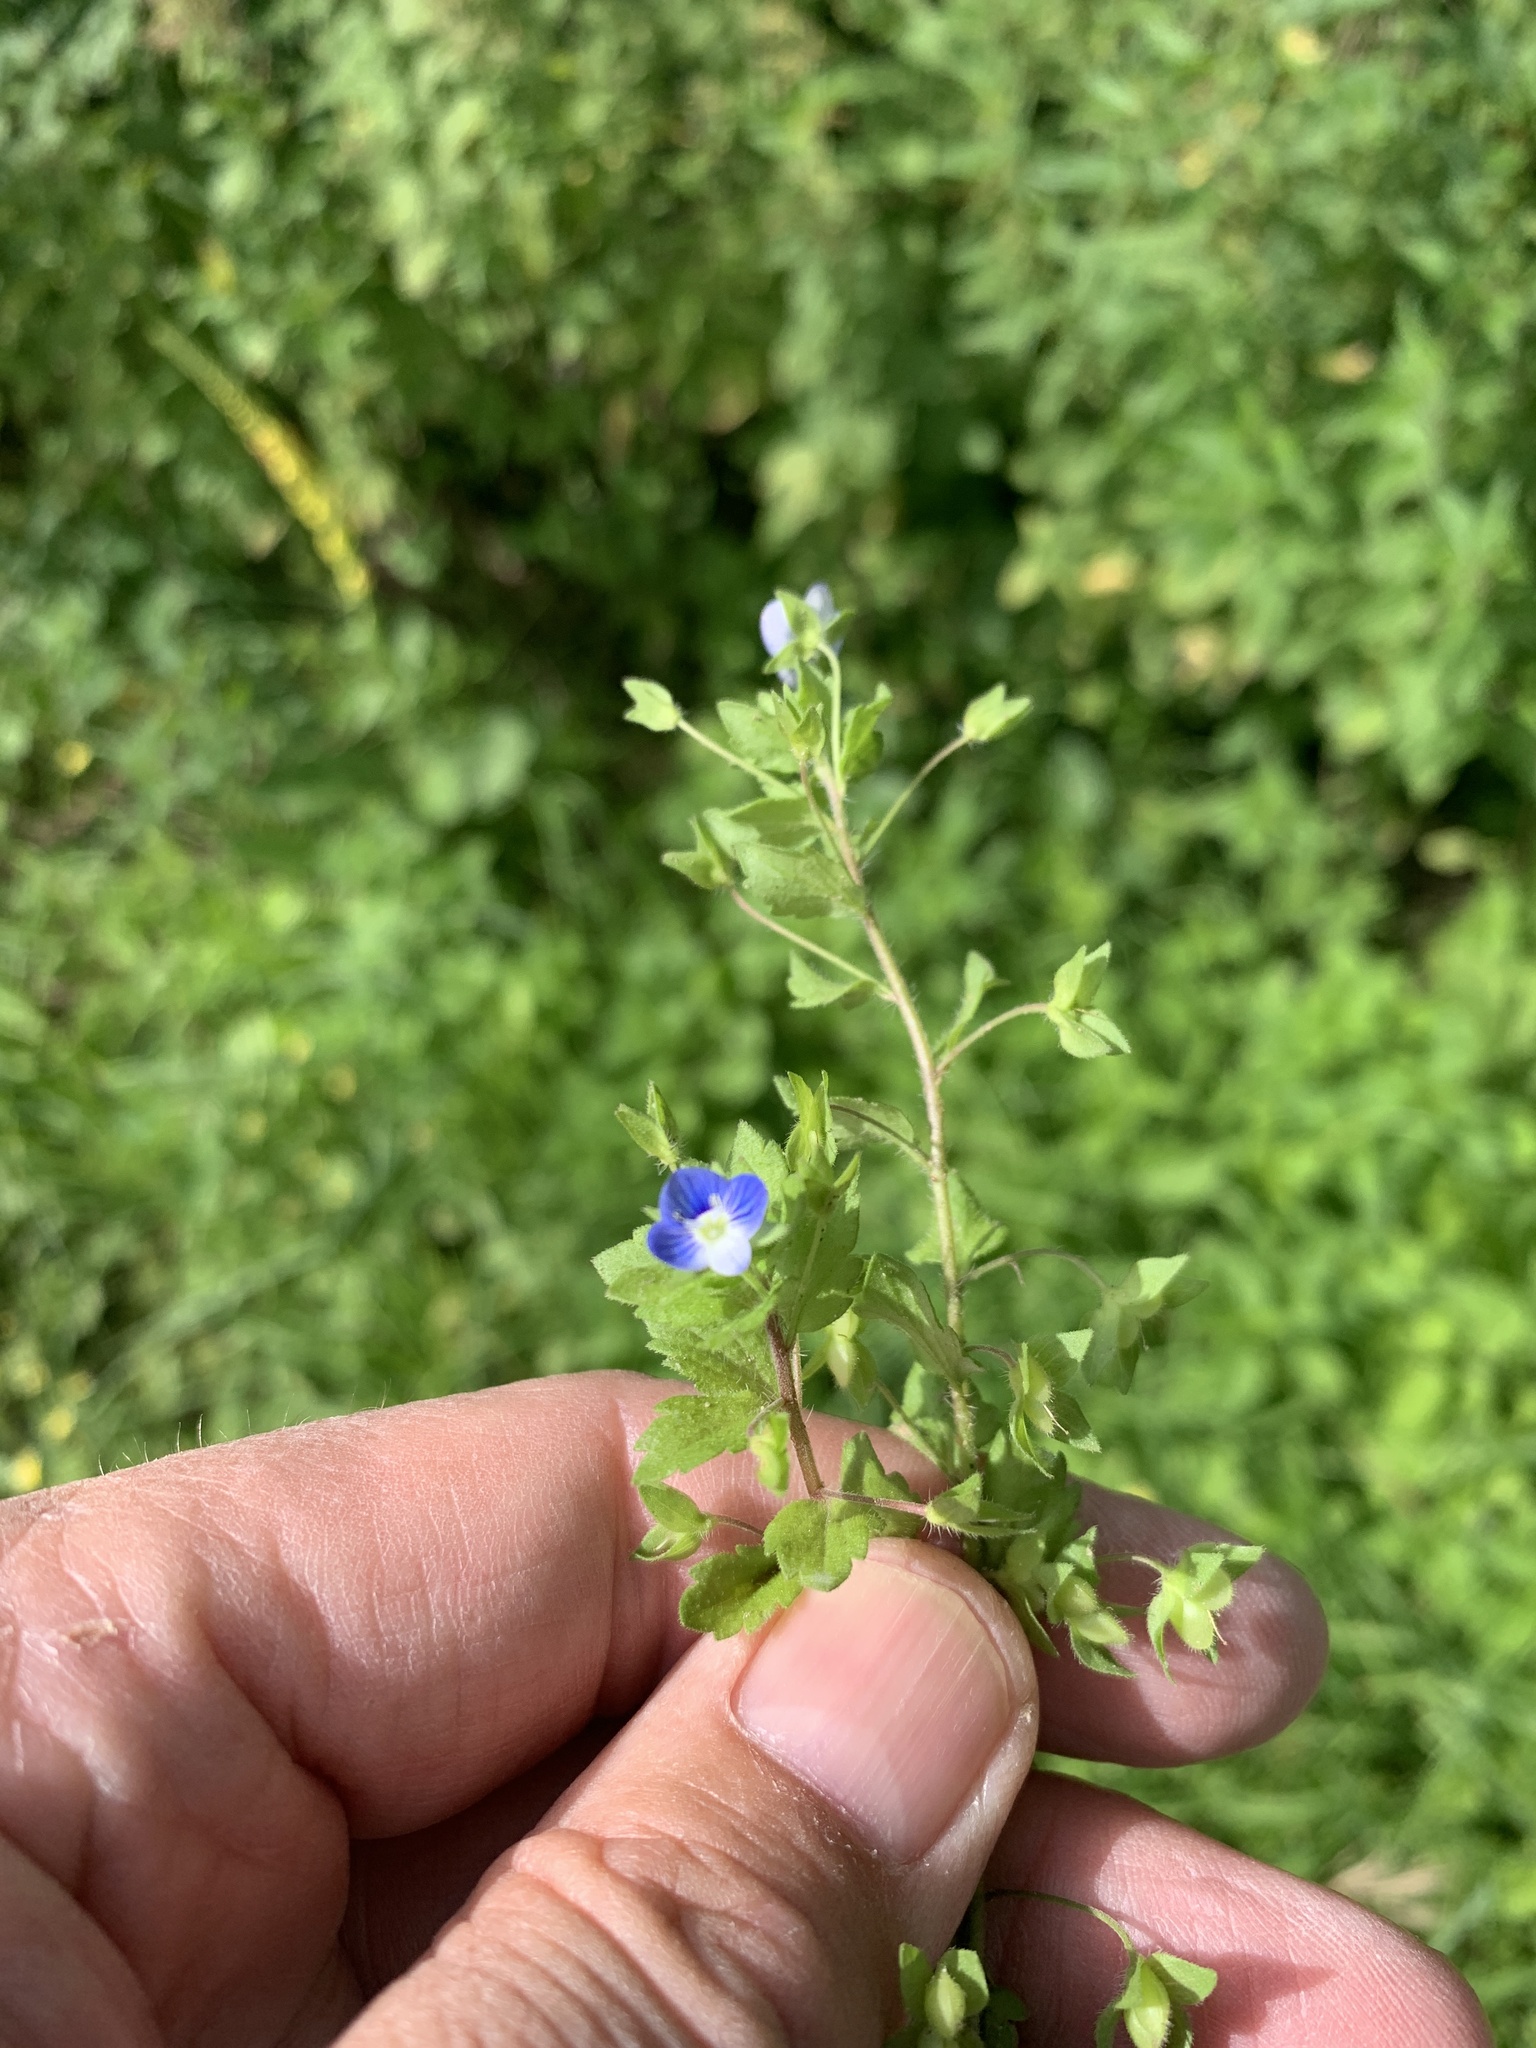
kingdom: Plantae
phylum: Tracheophyta
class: Magnoliopsida
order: Lamiales
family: Plantaginaceae
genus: Veronica
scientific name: Veronica persica
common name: Common field-speedwell
